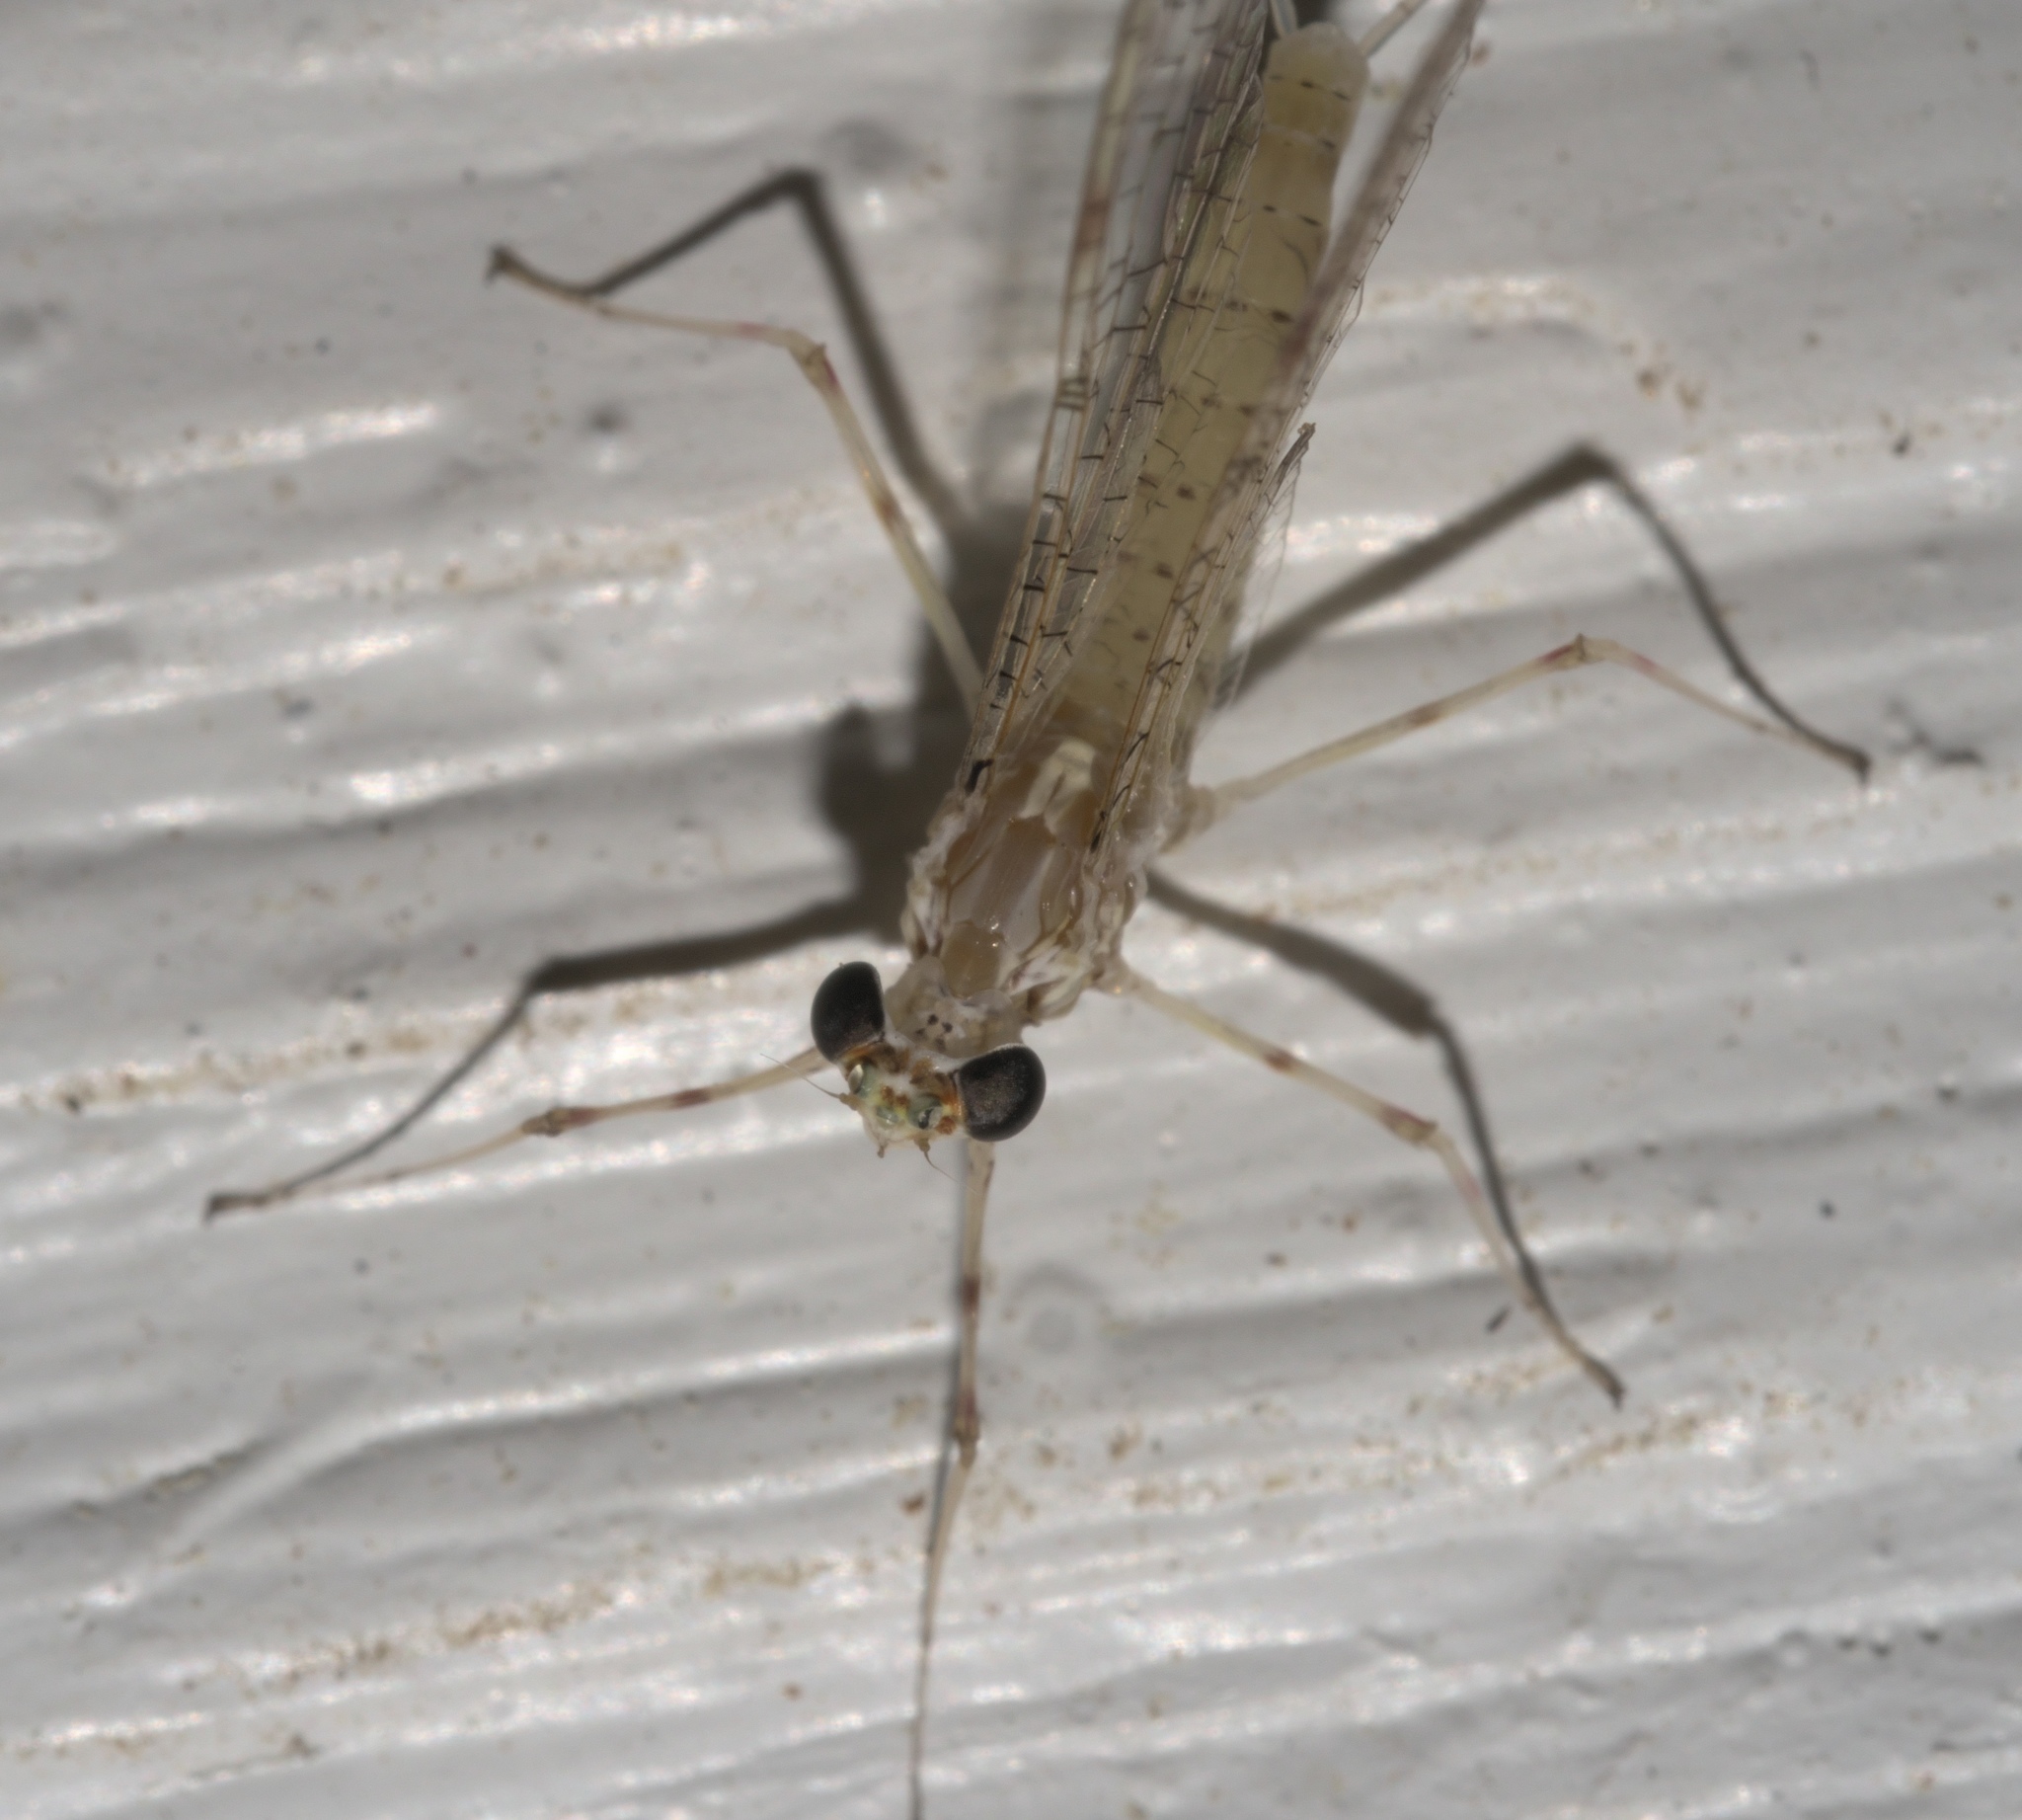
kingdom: Animalia
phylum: Arthropoda
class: Insecta
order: Ephemeroptera
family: Heptageniidae
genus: Stenonema
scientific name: Stenonema femoratum
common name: Dark cahill
